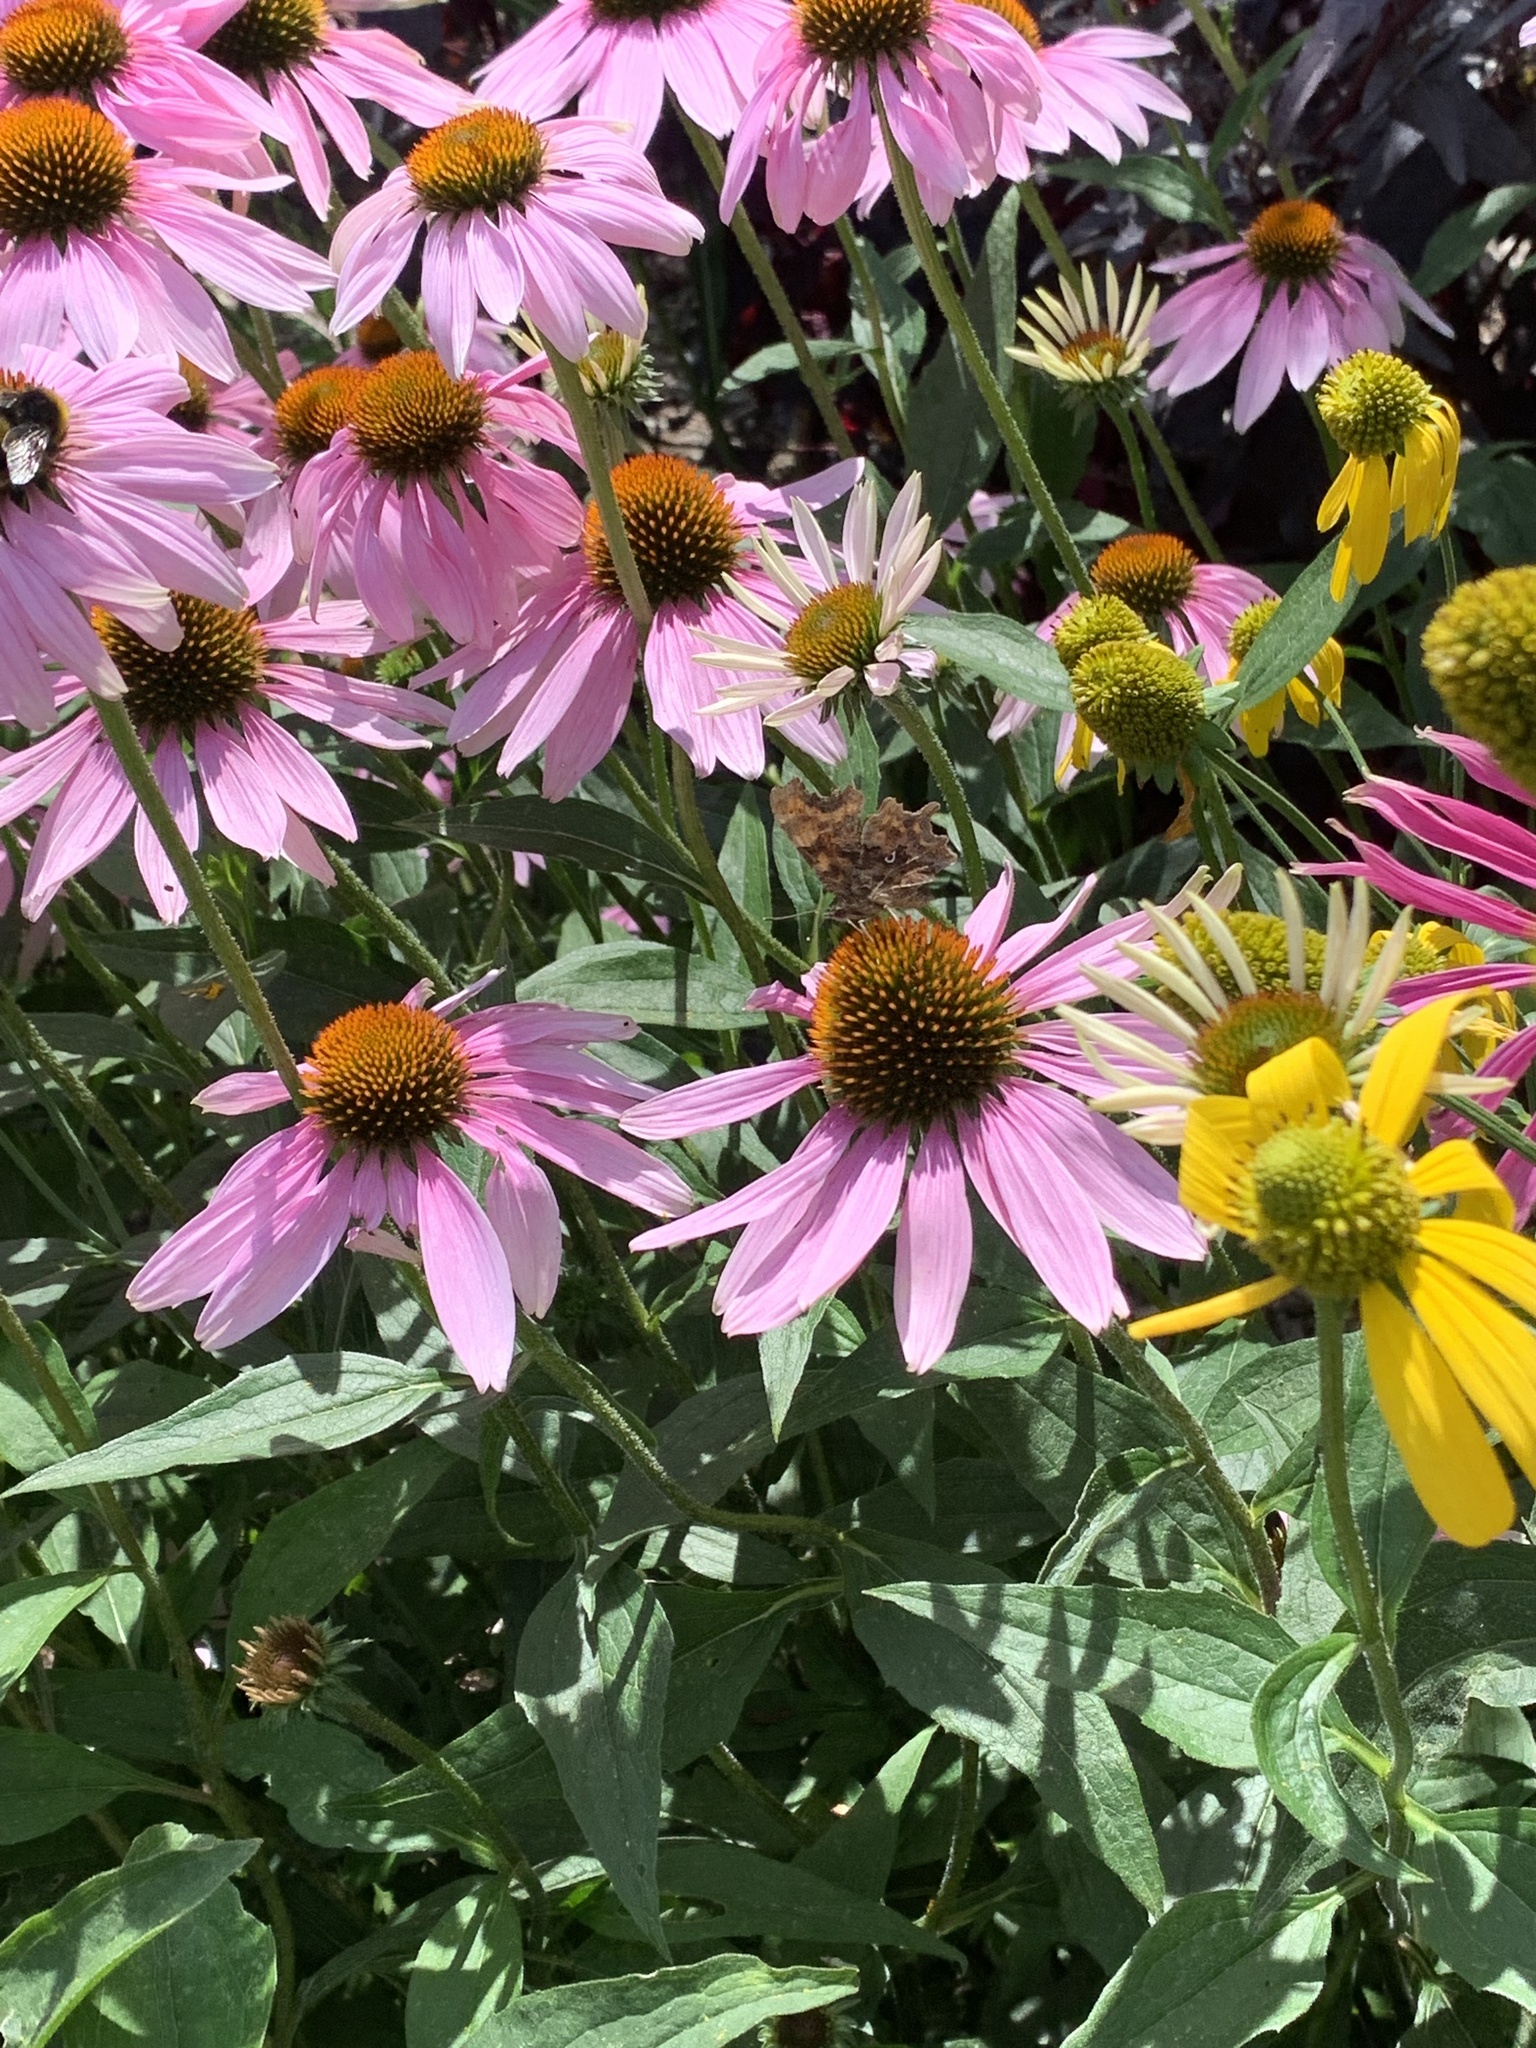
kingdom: Animalia
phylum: Arthropoda
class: Insecta
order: Lepidoptera
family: Nymphalidae
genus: Polygonia
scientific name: Polygonia c-album
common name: Comma
